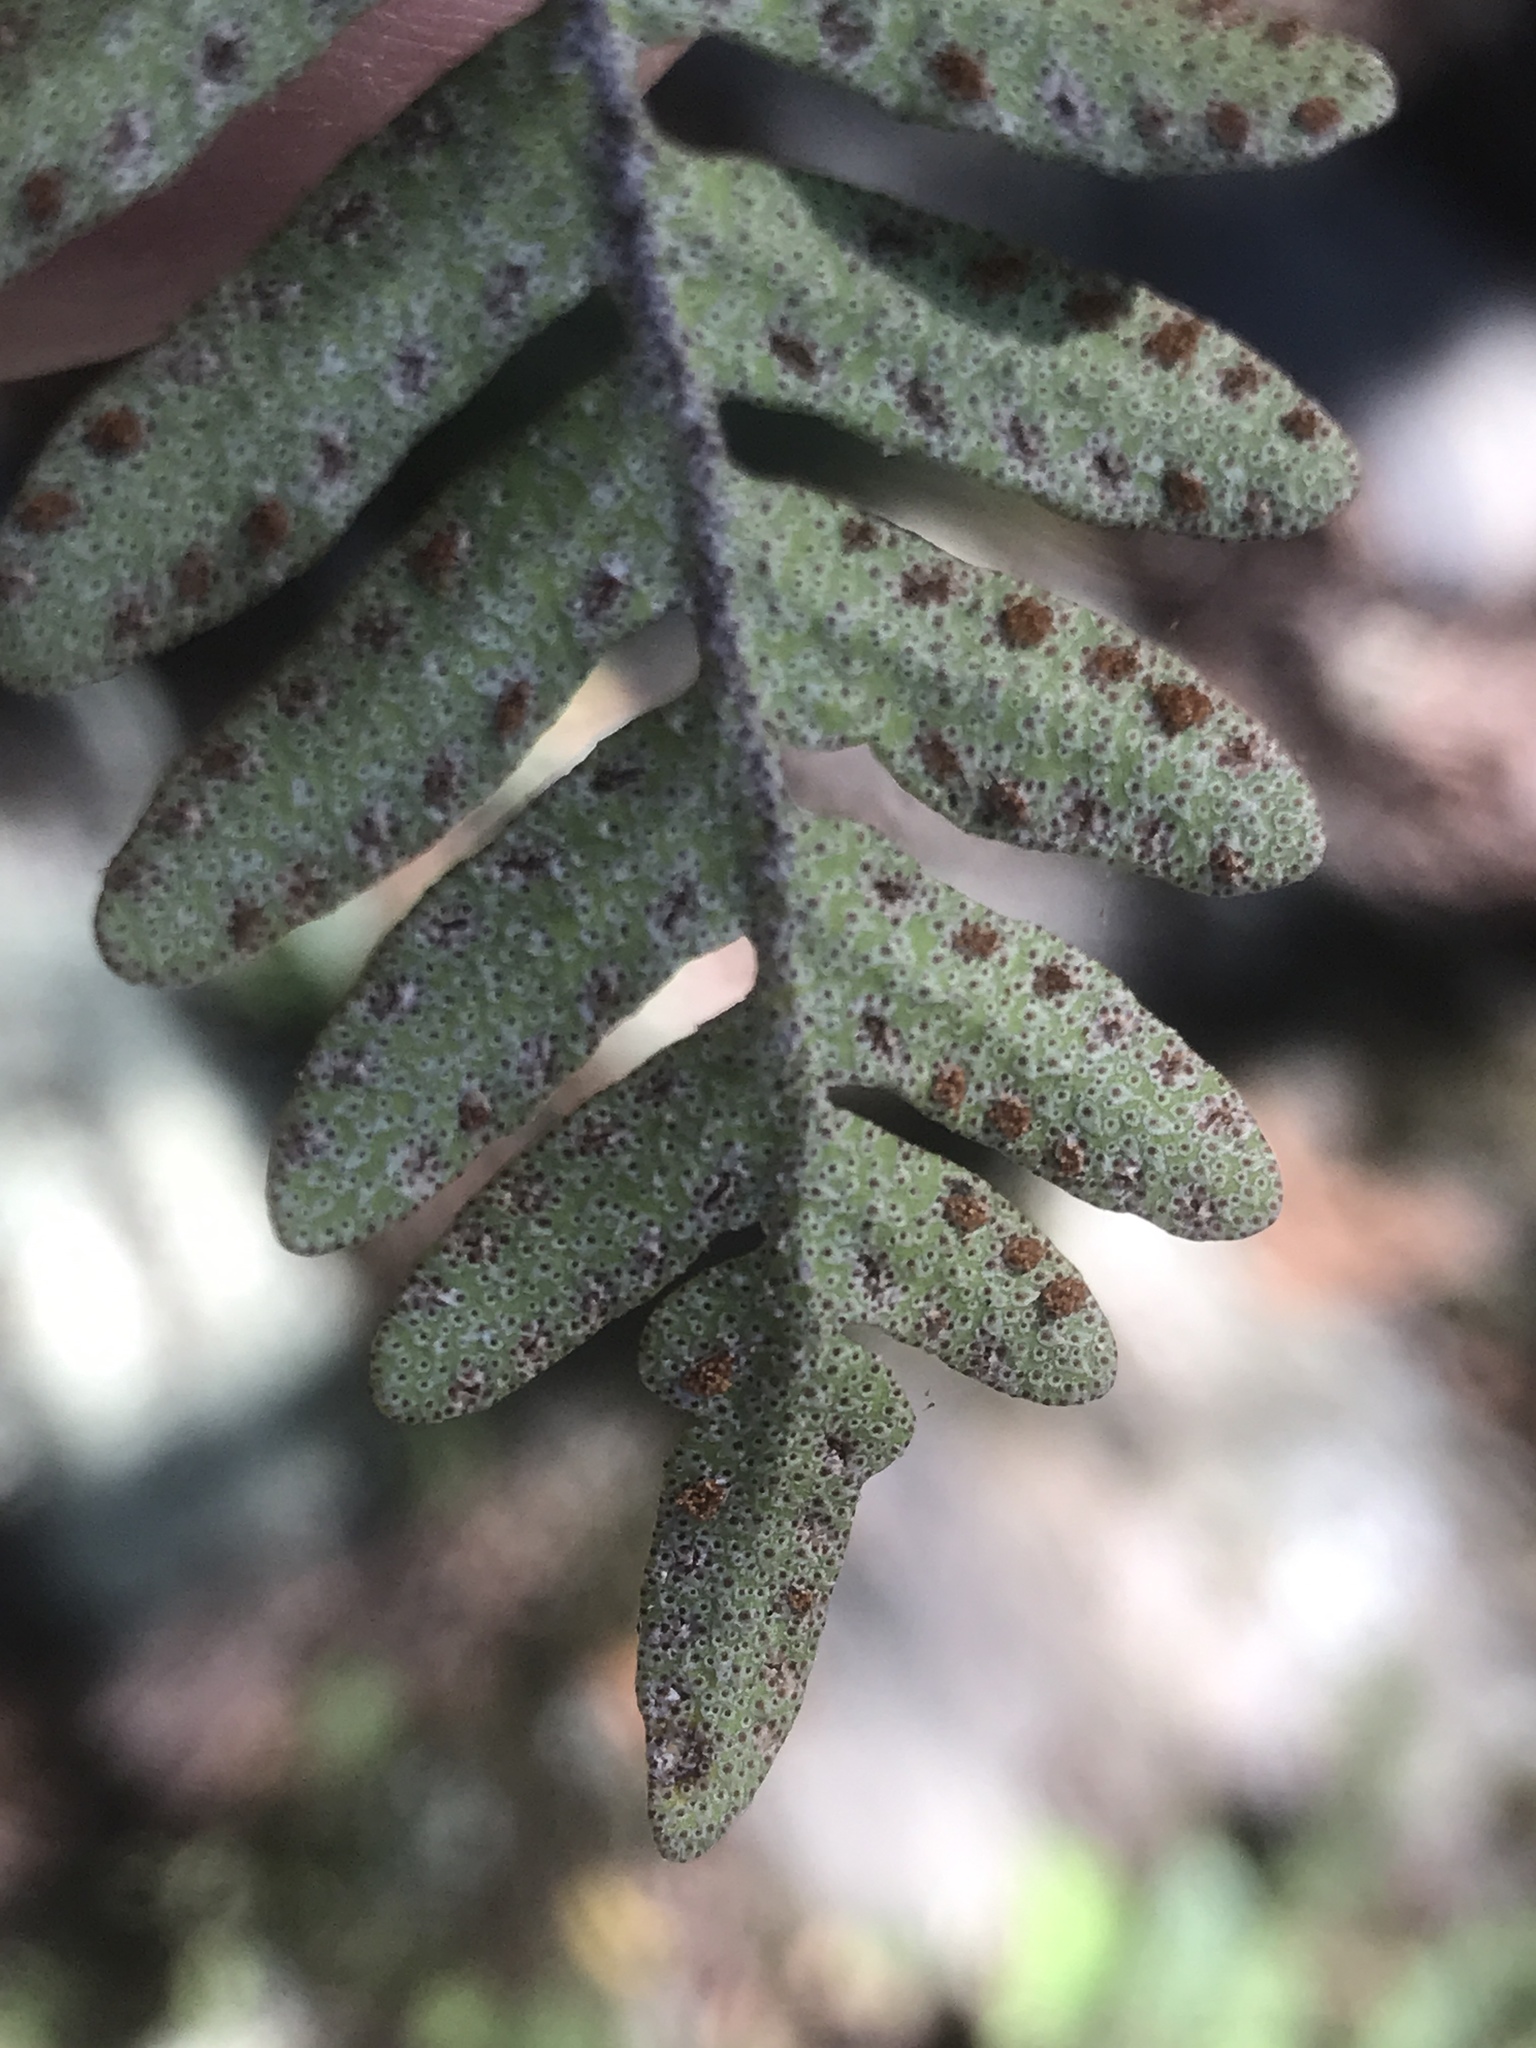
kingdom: Plantae
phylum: Tracheophyta
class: Polypodiopsida
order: Polypodiales
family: Polypodiaceae
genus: Pleopeltis
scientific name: Pleopeltis michauxiana
